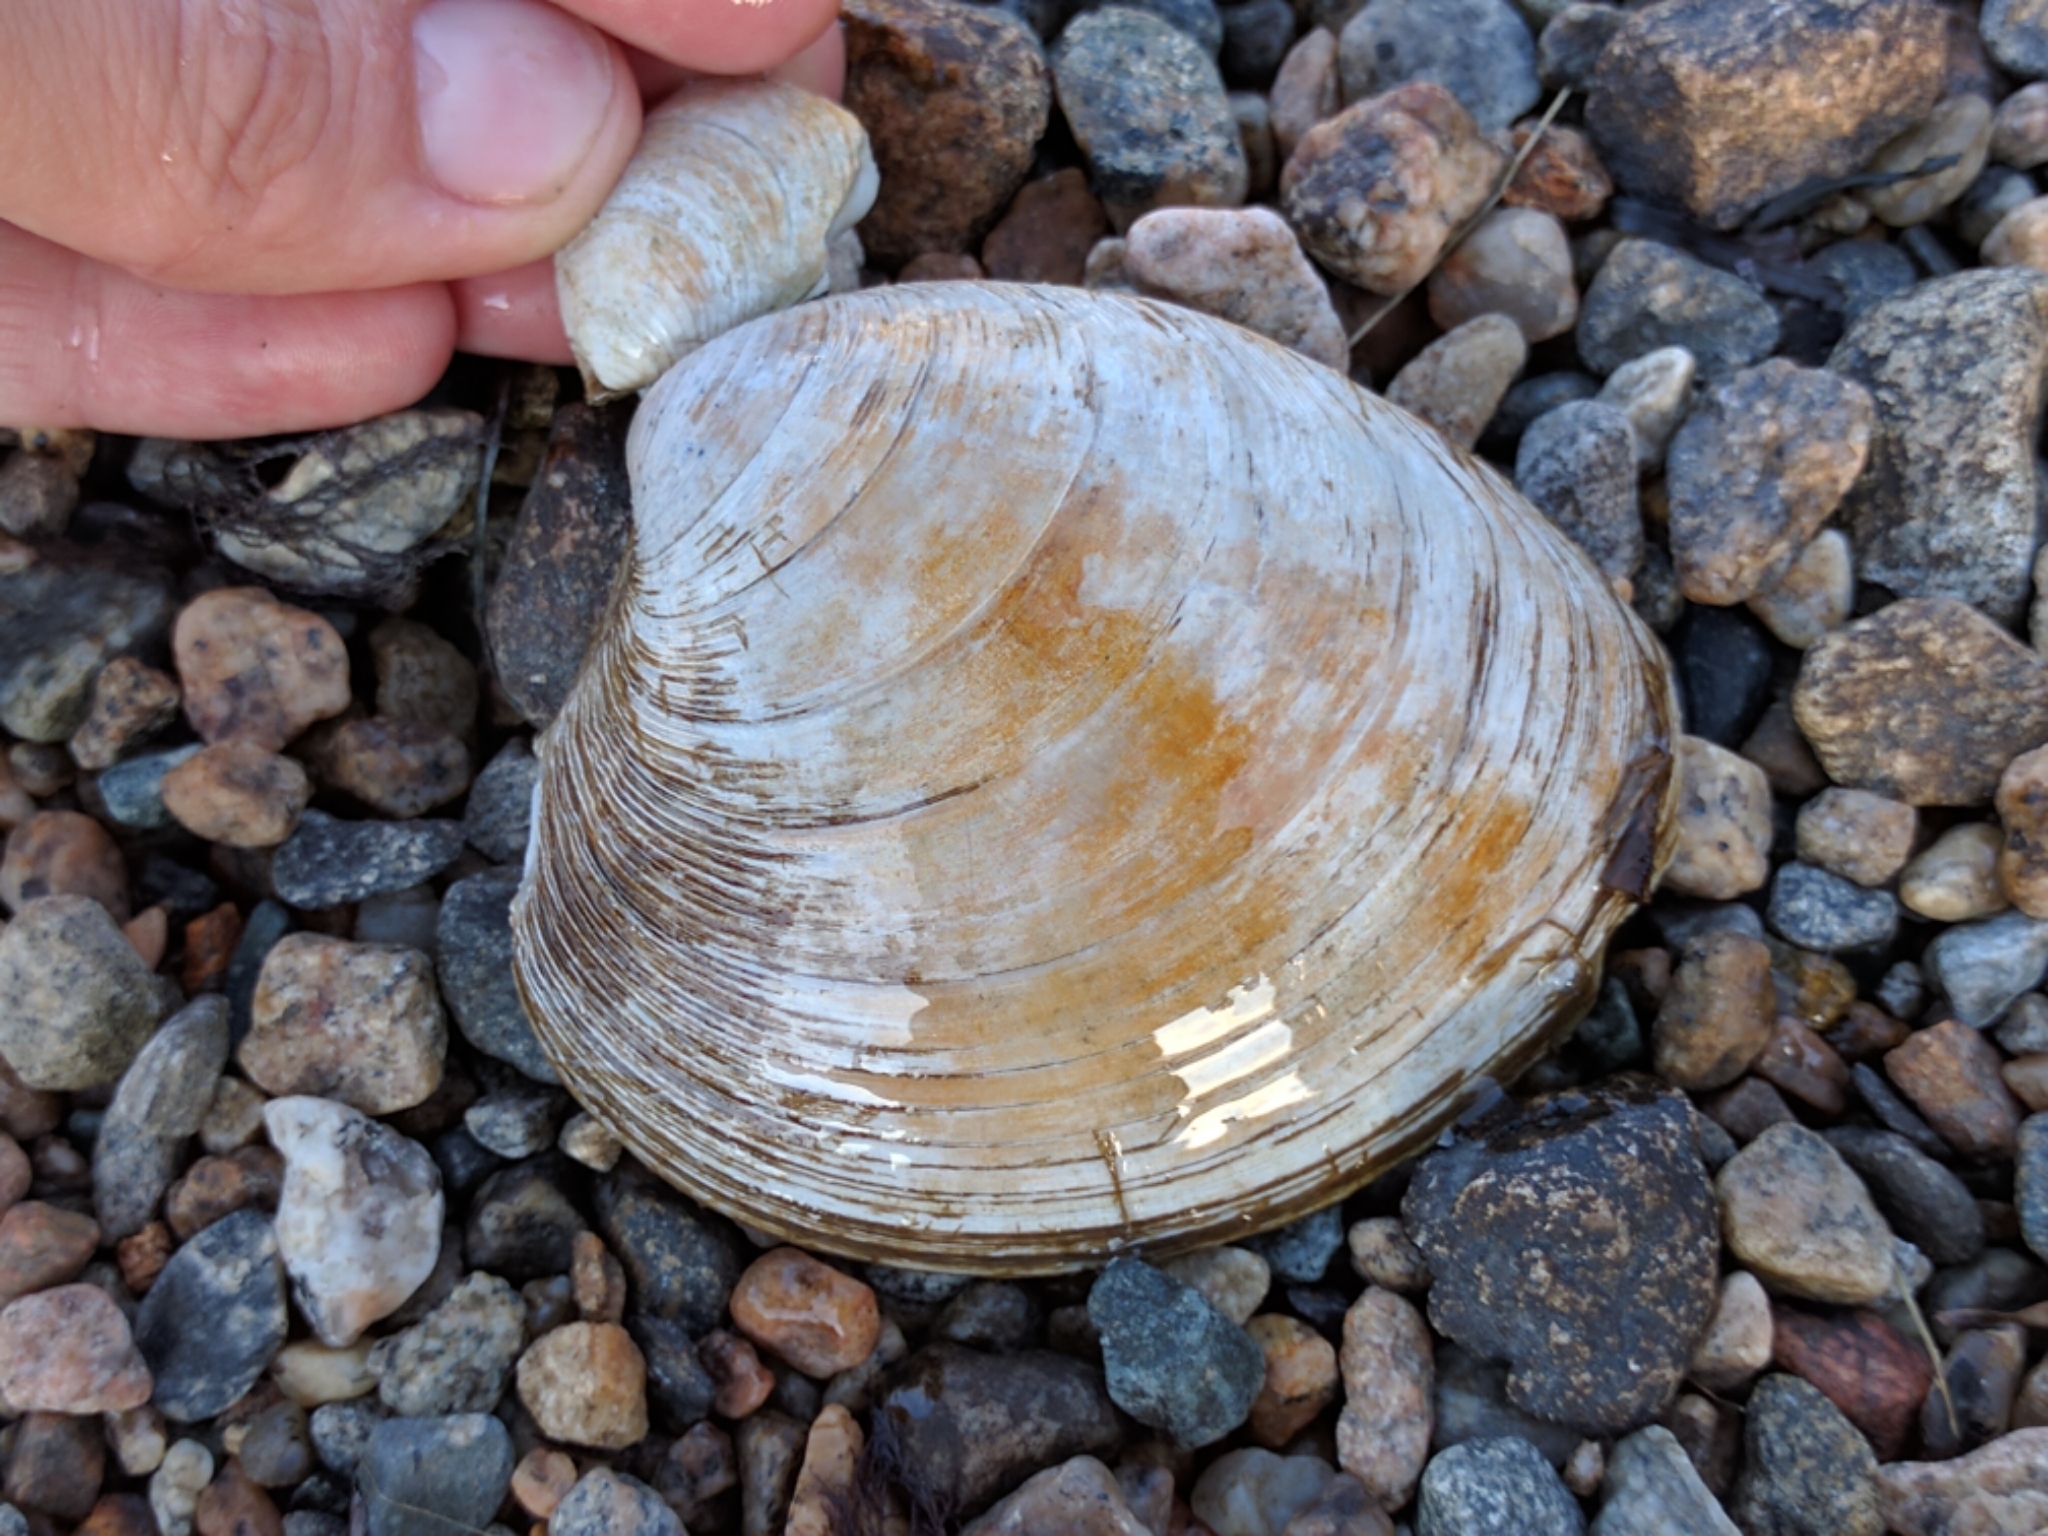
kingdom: Animalia
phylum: Mollusca
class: Bivalvia
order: Venerida
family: Veneridae
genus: Mercenaria
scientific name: Mercenaria mercenaria
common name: American hard-shelled clam
